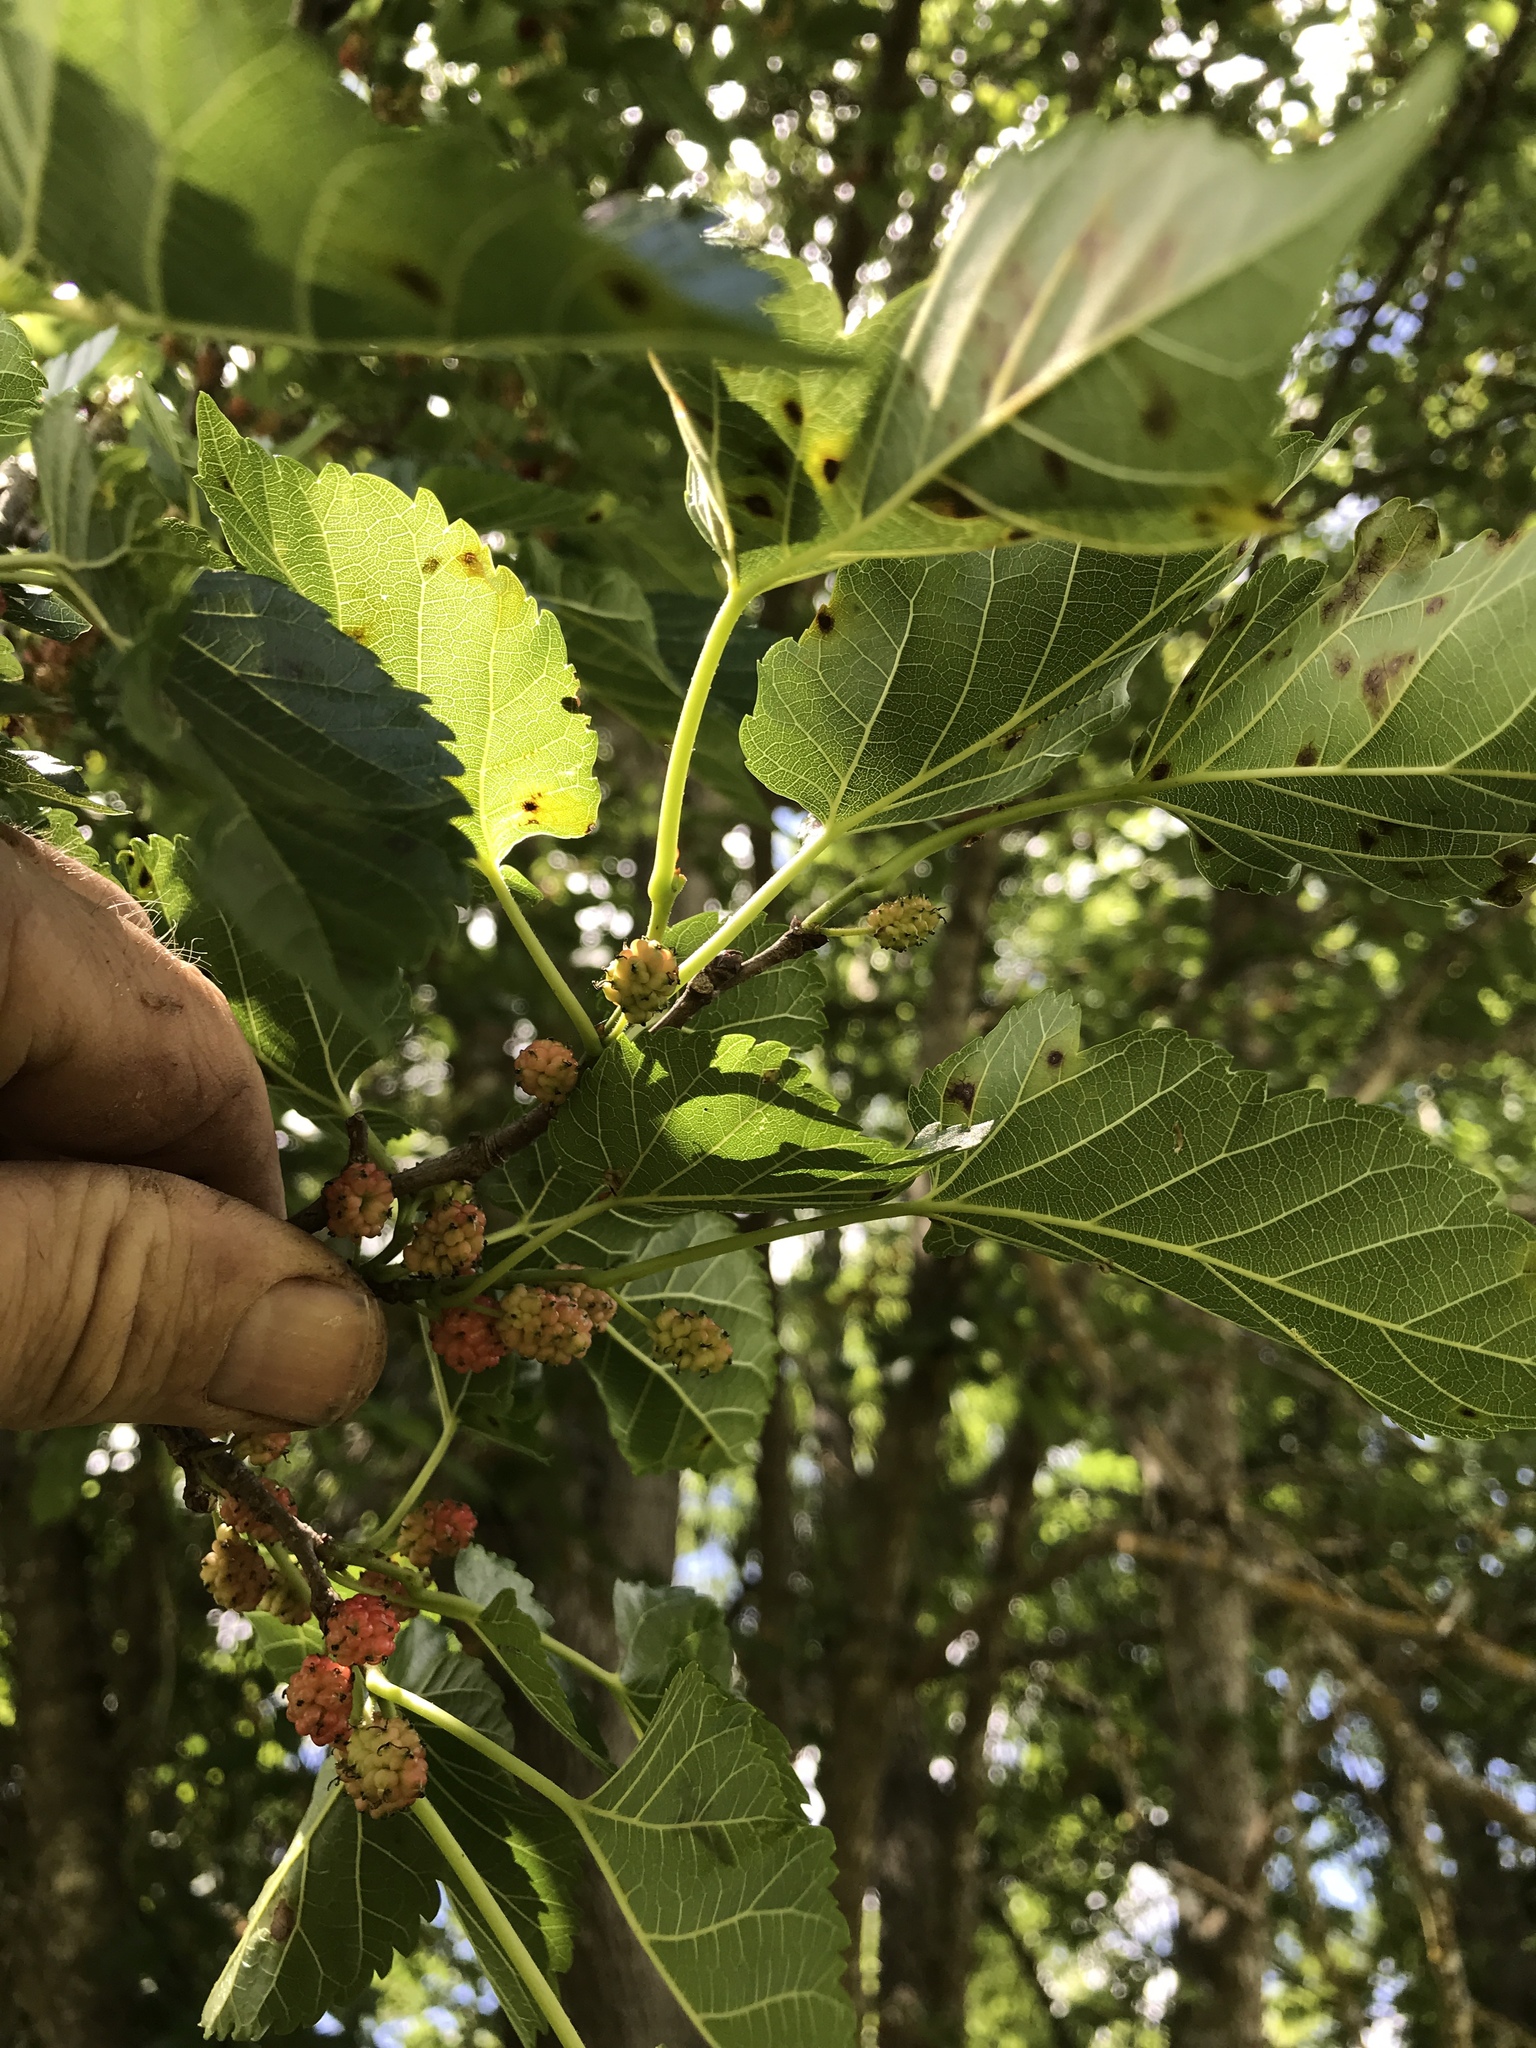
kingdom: Plantae
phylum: Tracheophyta
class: Magnoliopsida
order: Rosales
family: Moraceae
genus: Morus
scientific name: Morus alba
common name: White mulberry
